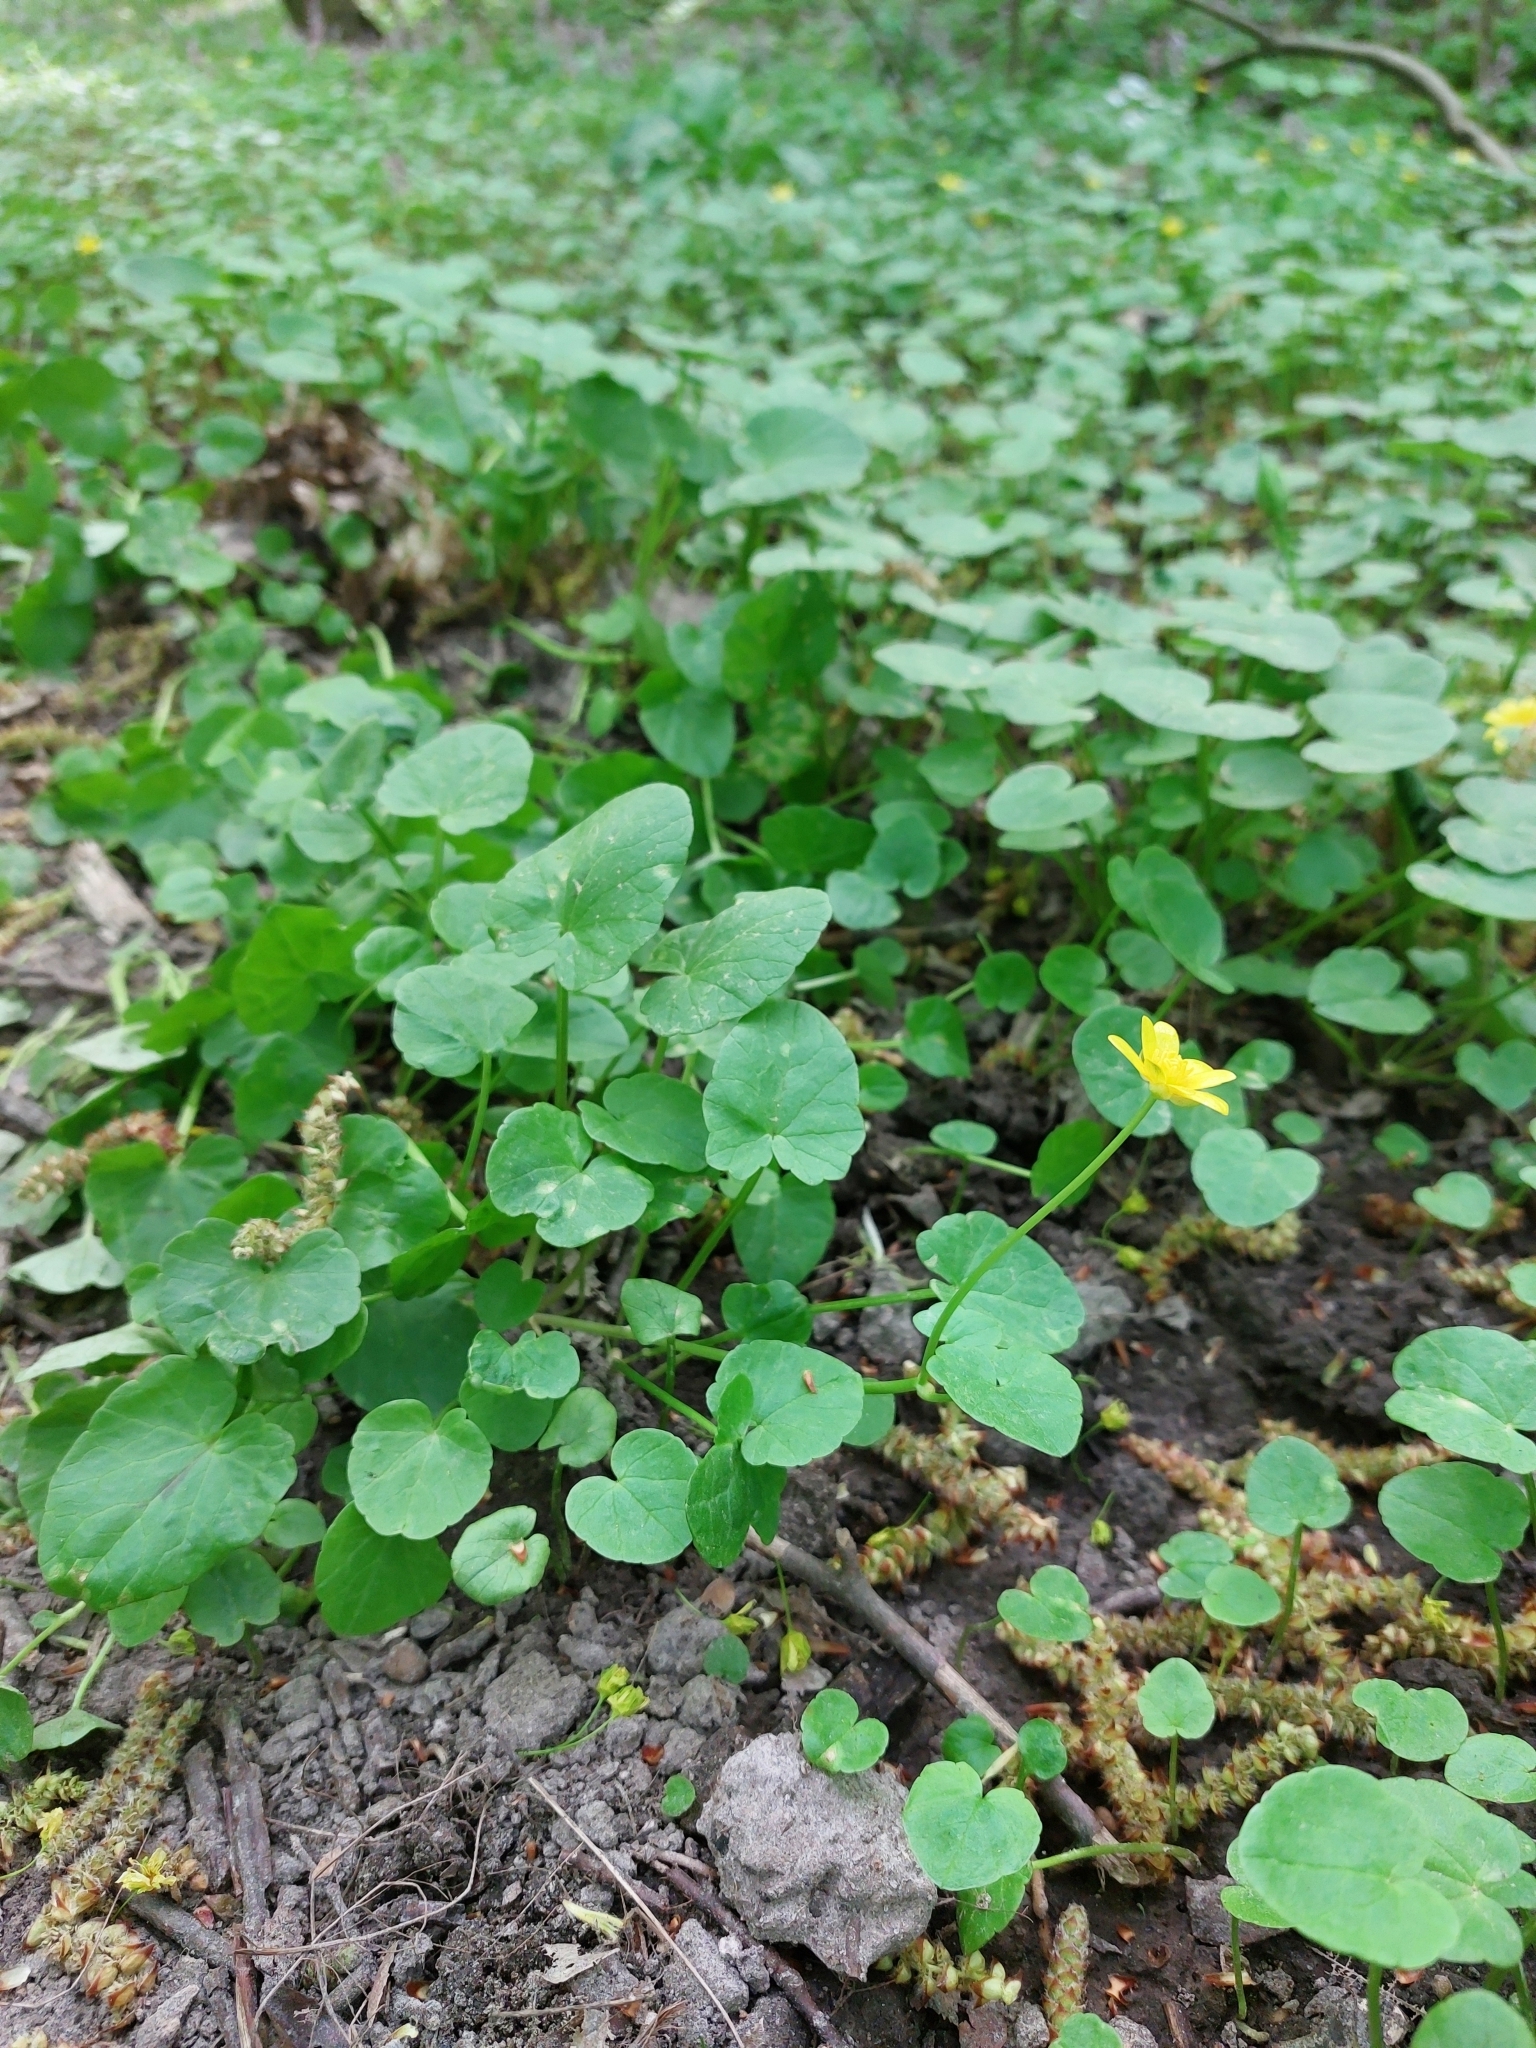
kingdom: Plantae
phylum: Tracheophyta
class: Magnoliopsida
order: Ranunculales
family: Ranunculaceae
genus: Ficaria
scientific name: Ficaria verna
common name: Lesser celandine
